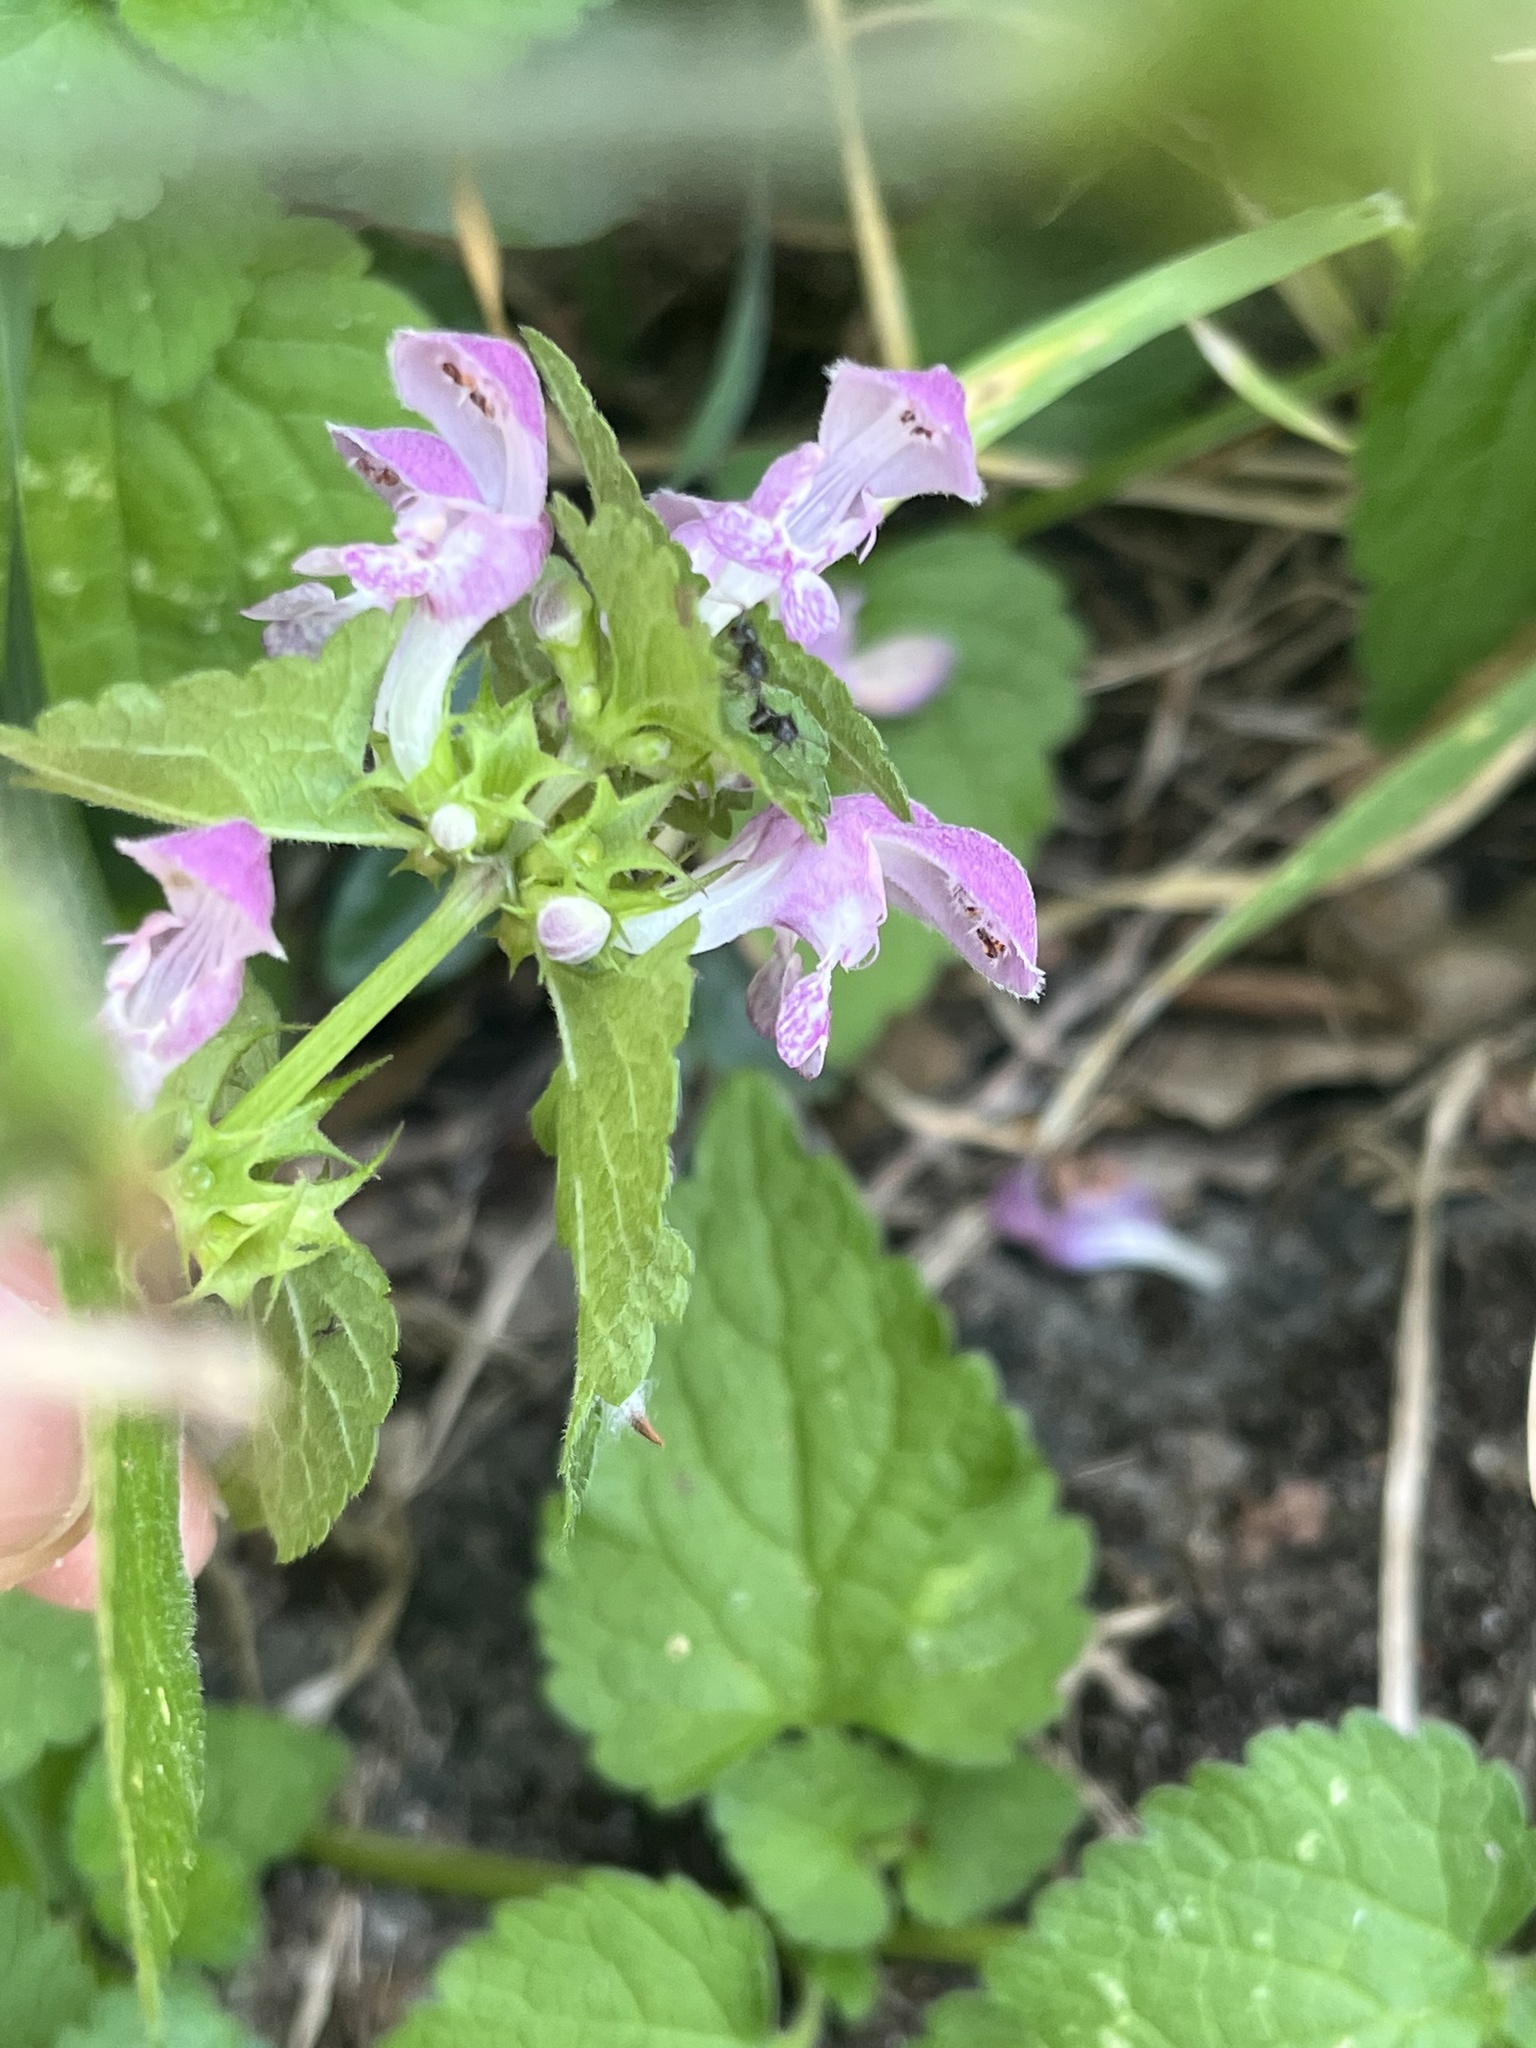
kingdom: Plantae
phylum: Tracheophyta
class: Magnoliopsida
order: Lamiales
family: Lamiaceae
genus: Lamium
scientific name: Lamium maculatum
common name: Spotted dead-nettle
